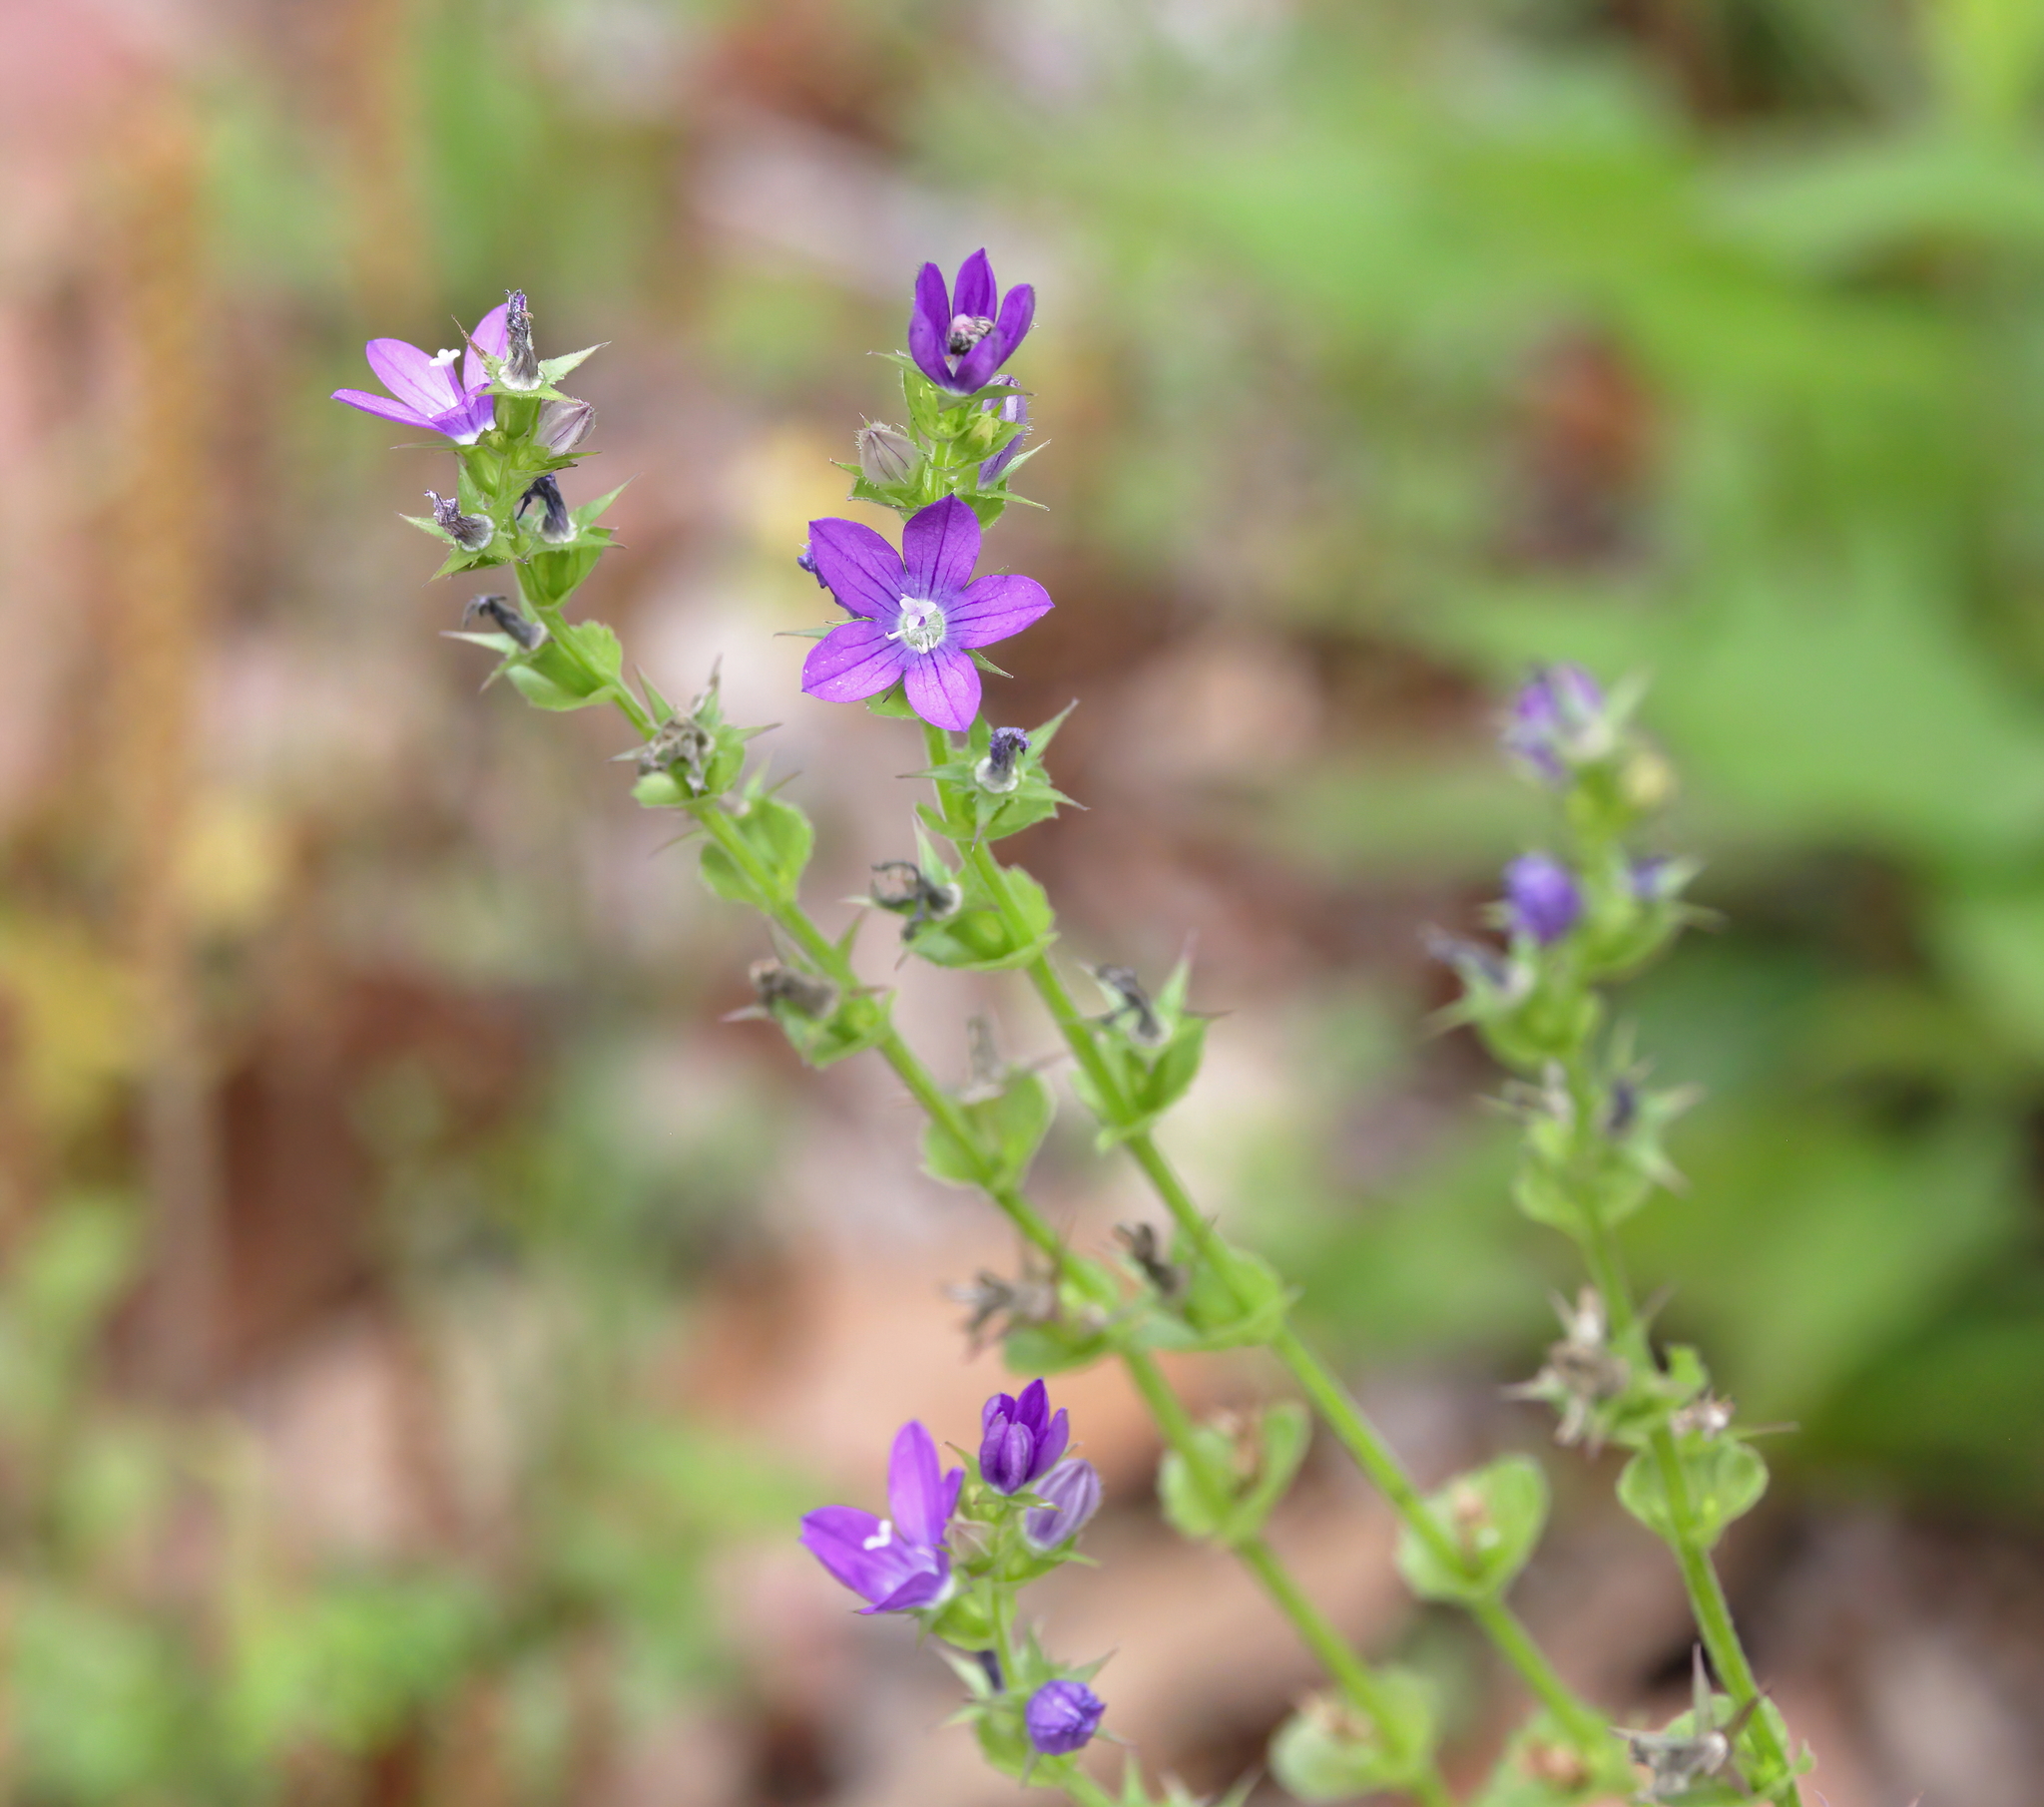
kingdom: Plantae
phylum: Tracheophyta
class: Magnoliopsida
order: Asterales
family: Campanulaceae
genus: Triodanis
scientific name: Triodanis perfoliata
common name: Clasping venus' looking-glass
